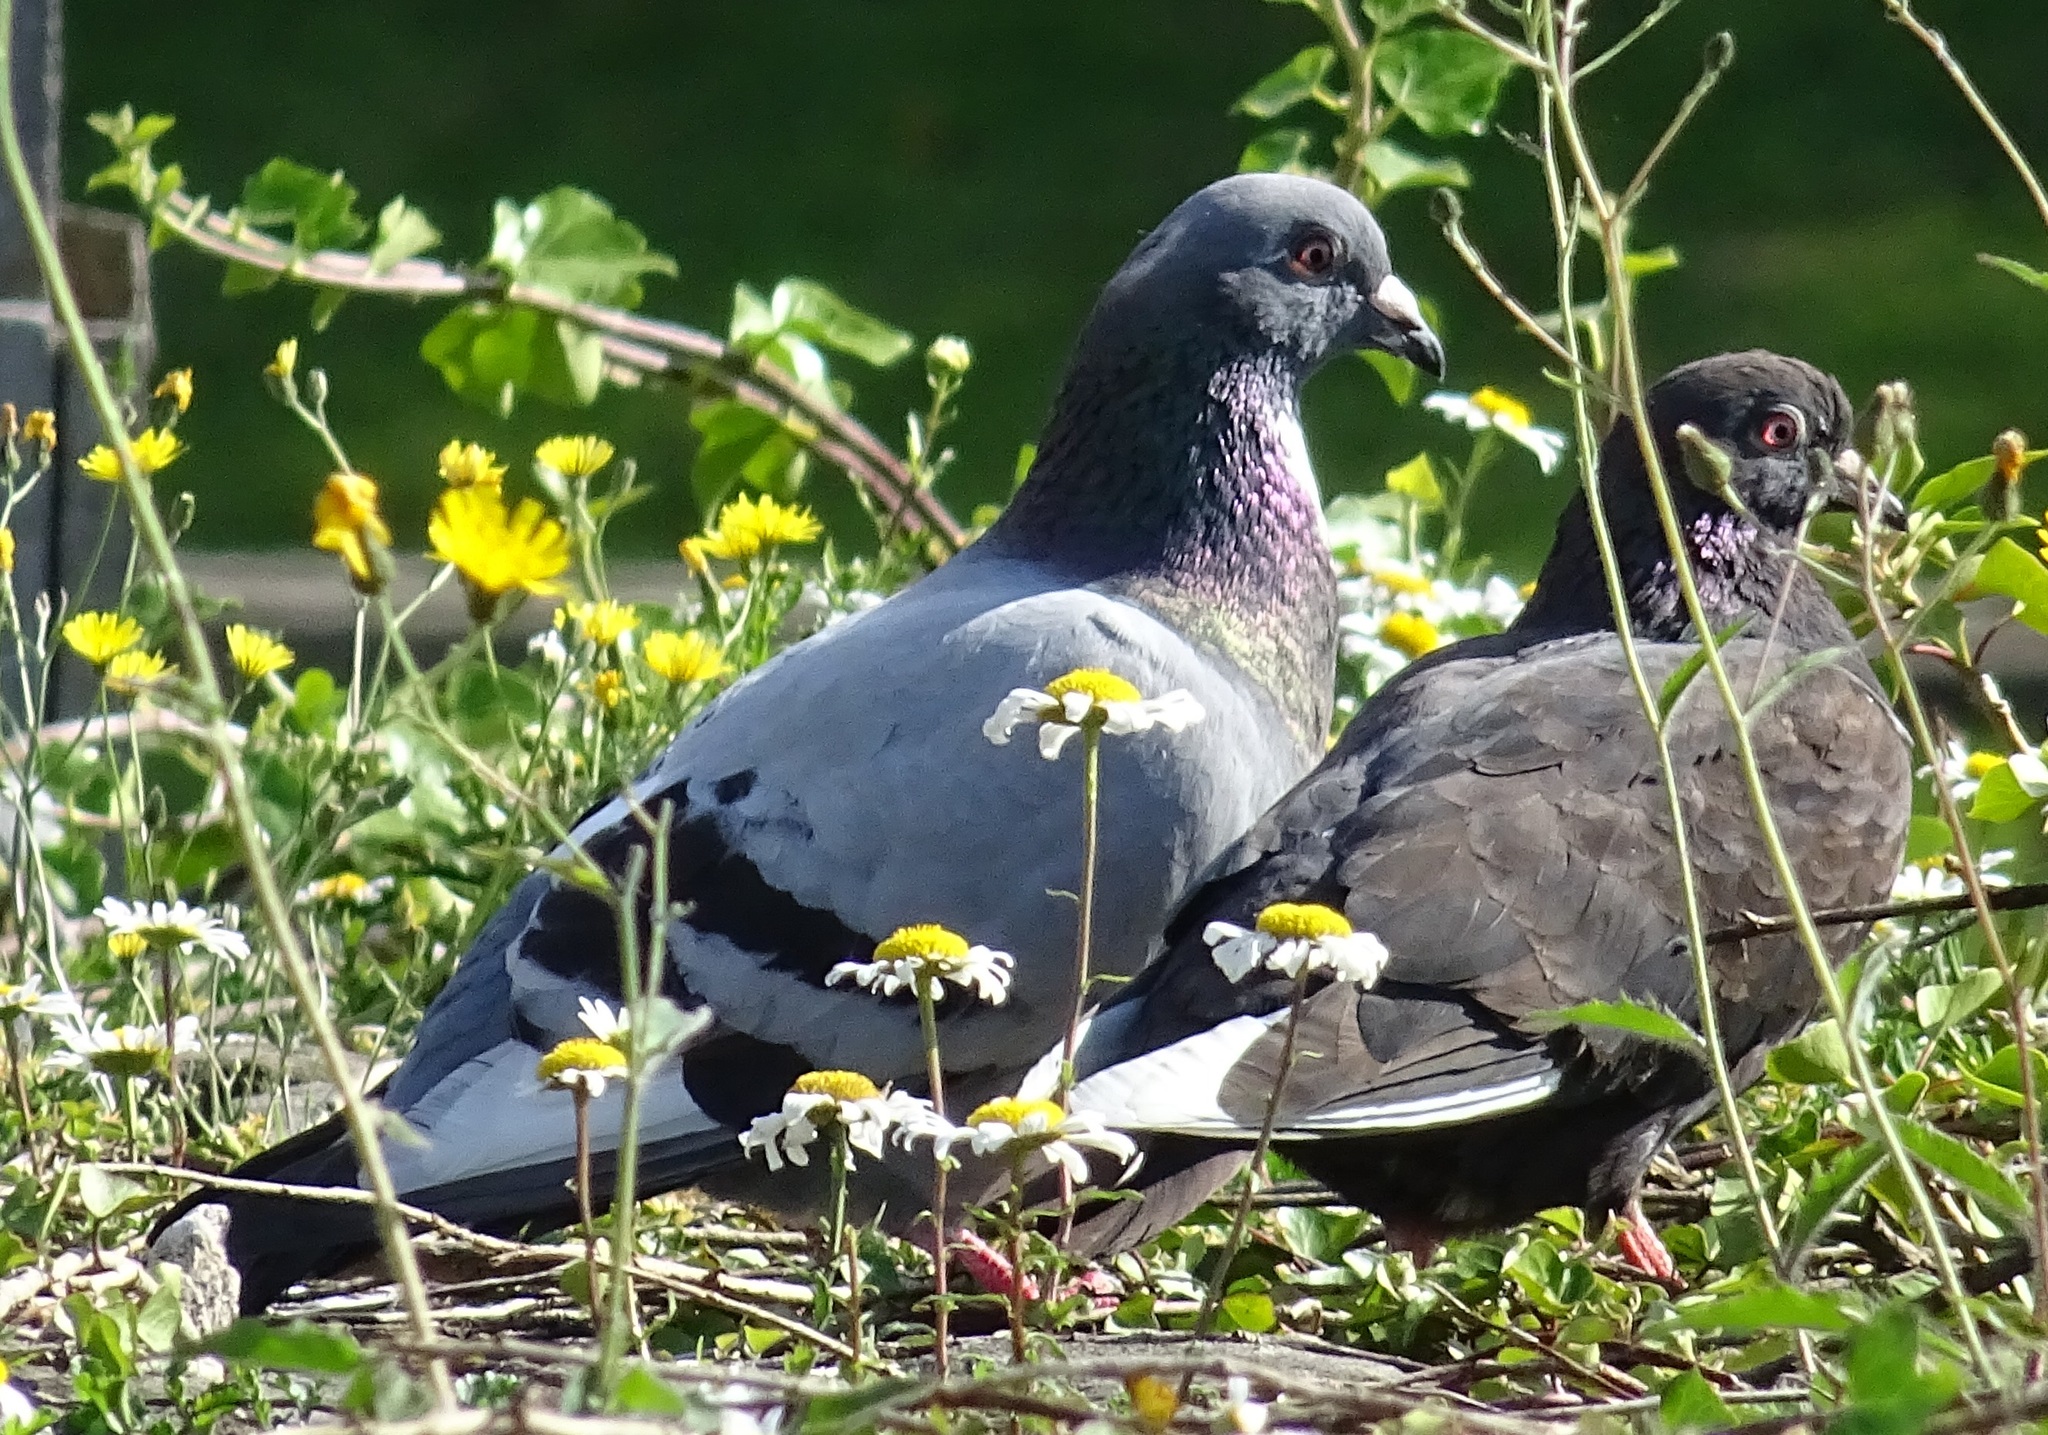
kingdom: Animalia
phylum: Chordata
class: Aves
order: Columbiformes
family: Columbidae
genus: Columba
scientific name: Columba livia
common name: Rock pigeon
